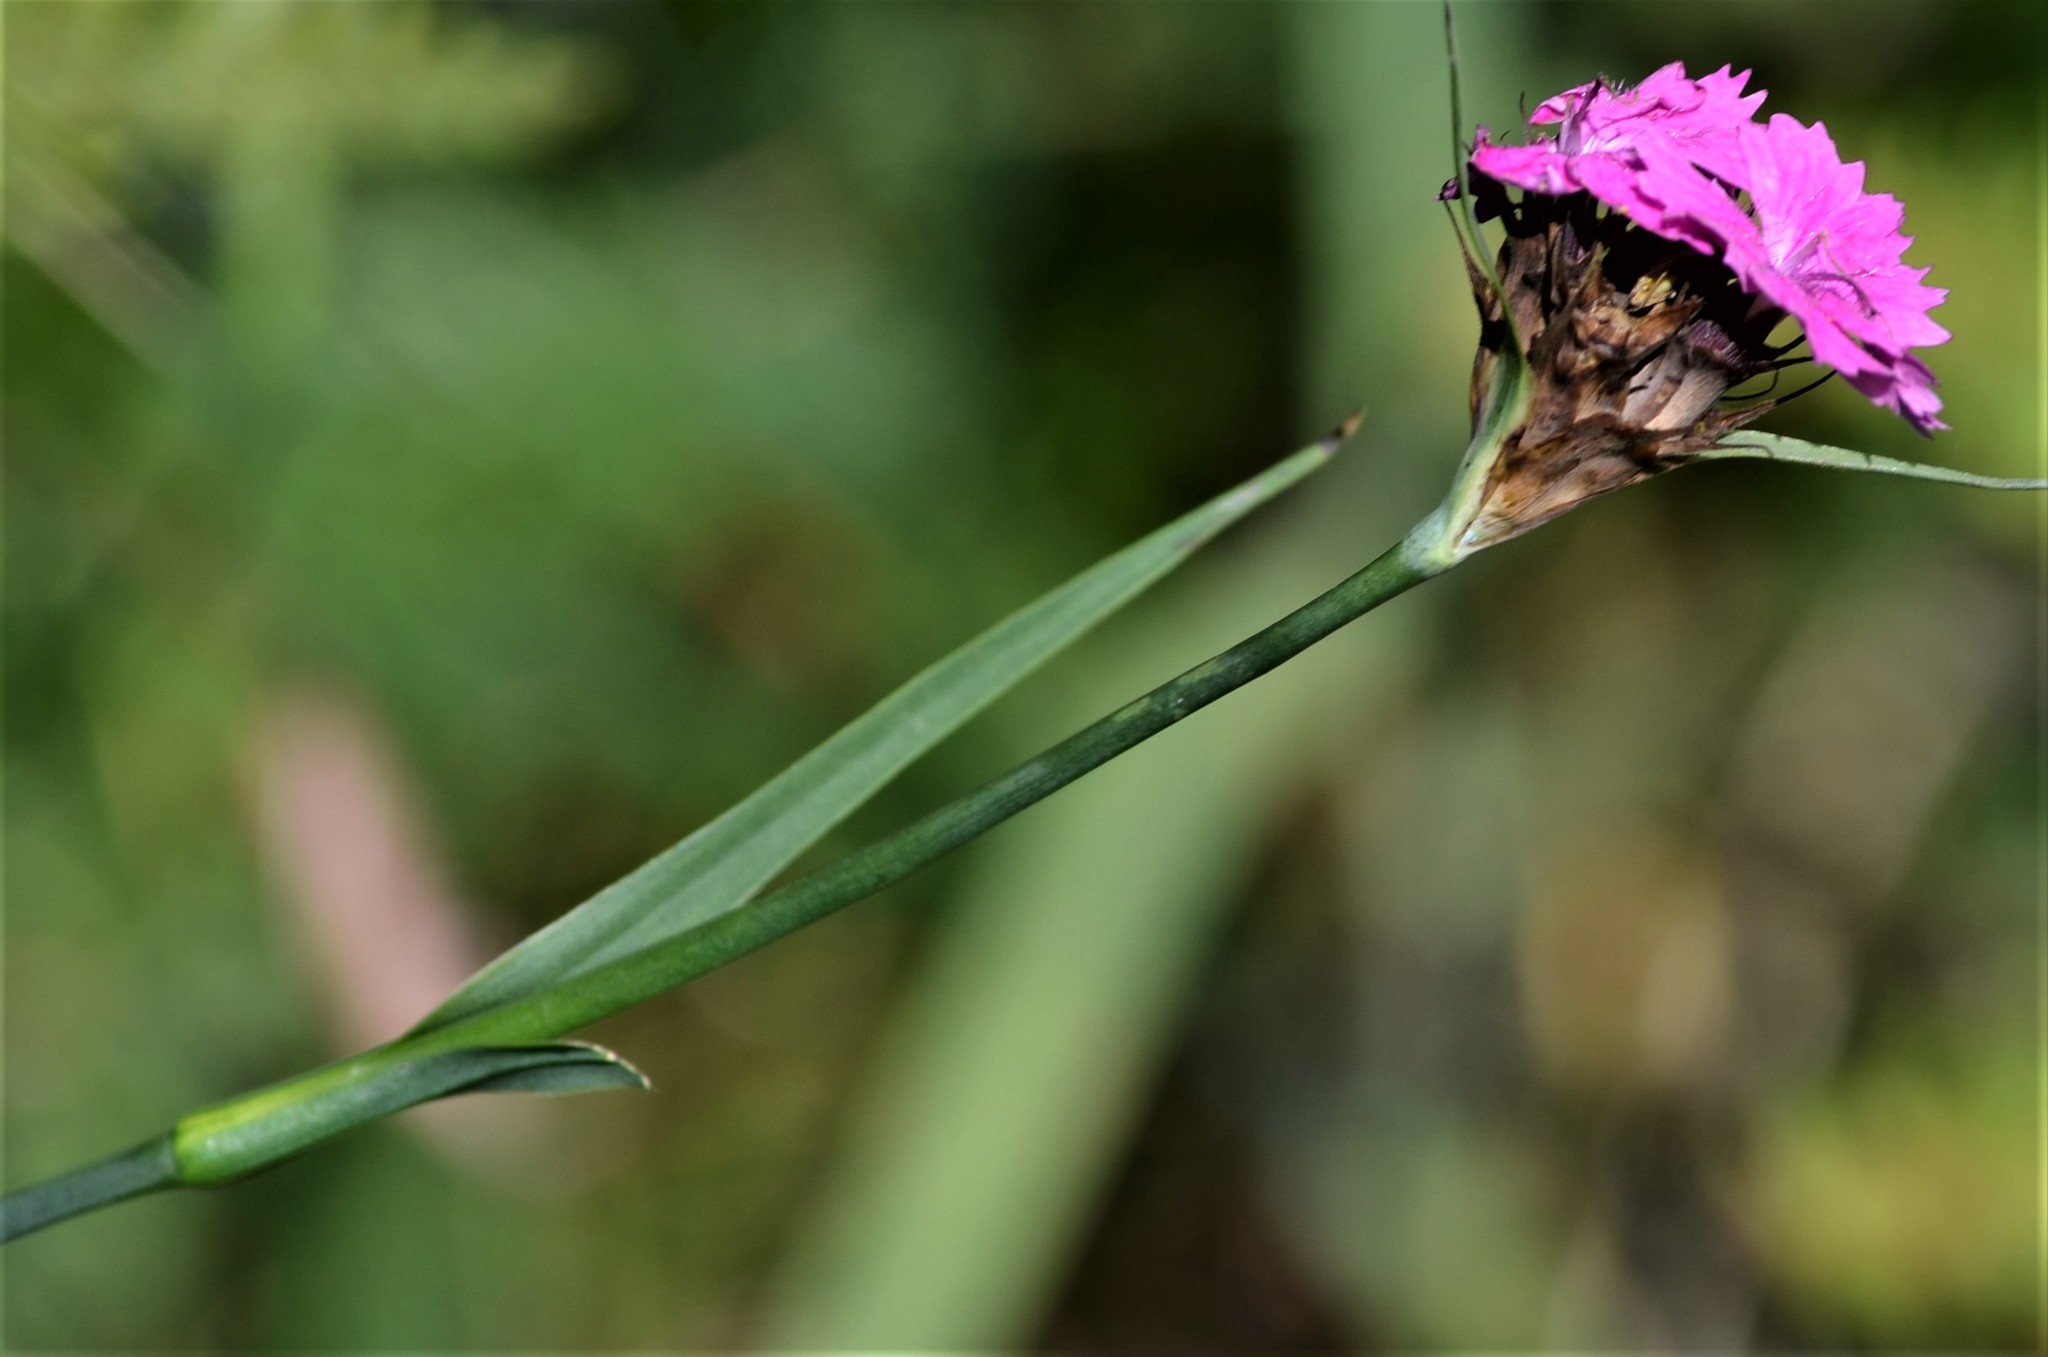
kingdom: Plantae
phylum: Tracheophyta
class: Magnoliopsida
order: Caryophyllales
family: Caryophyllaceae
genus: Dianthus
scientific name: Dianthus carthusianorum
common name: Carthusian pink
